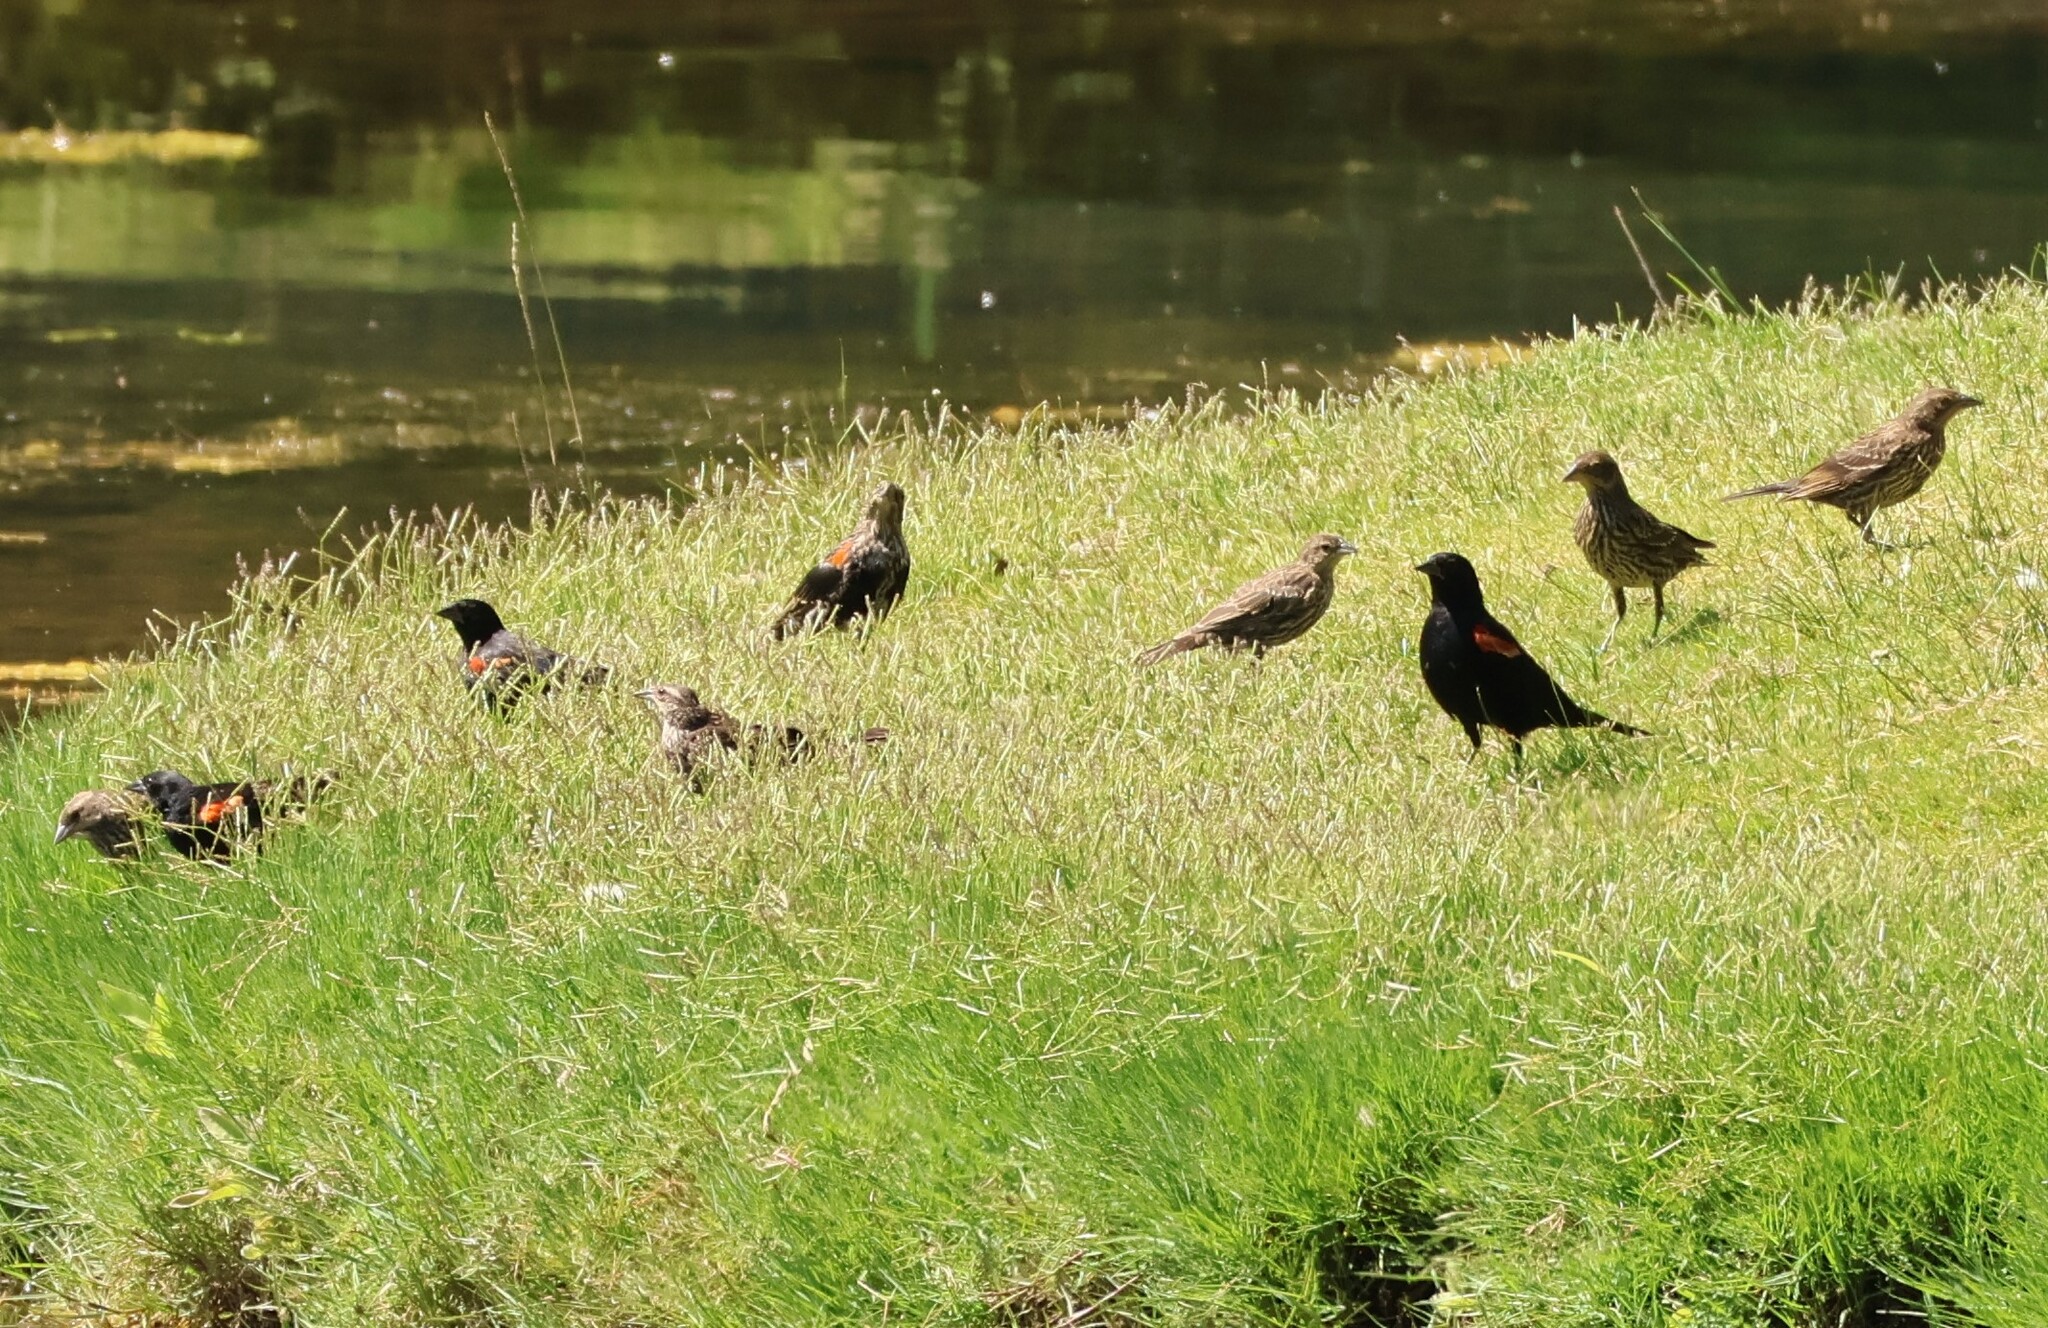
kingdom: Animalia
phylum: Chordata
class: Aves
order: Passeriformes
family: Icteridae
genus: Agelaius
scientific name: Agelaius phoeniceus
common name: Red-winged blackbird
